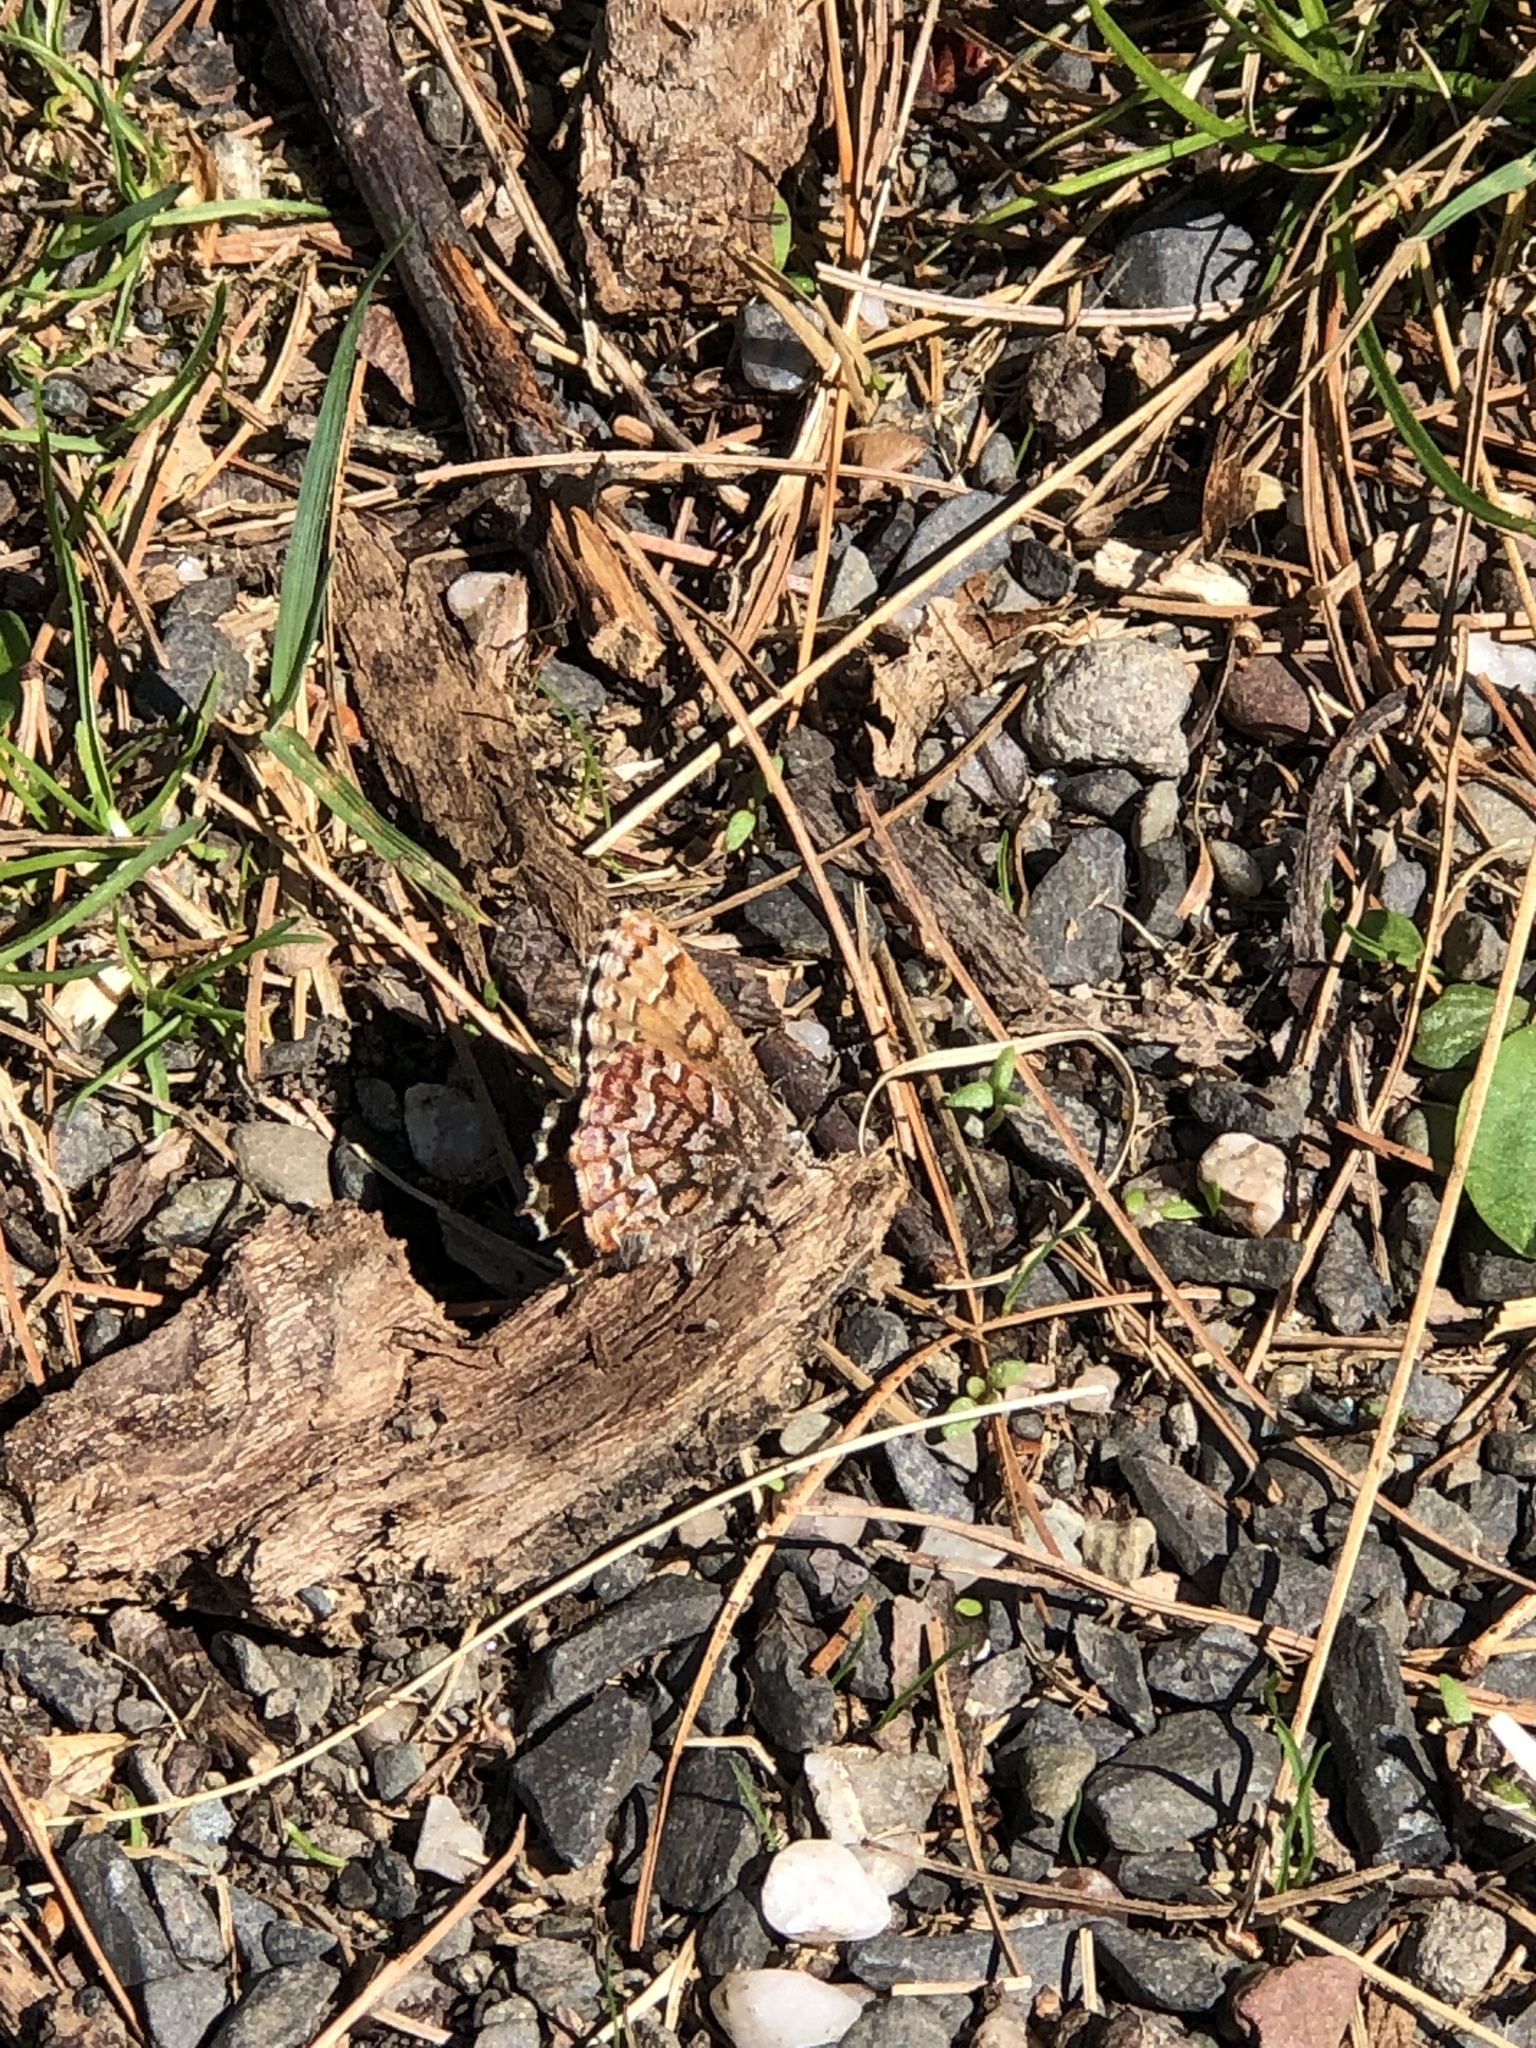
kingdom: Animalia
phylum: Arthropoda
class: Insecta
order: Lepidoptera
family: Lycaenidae
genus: Incisalia
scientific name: Incisalia niphon
